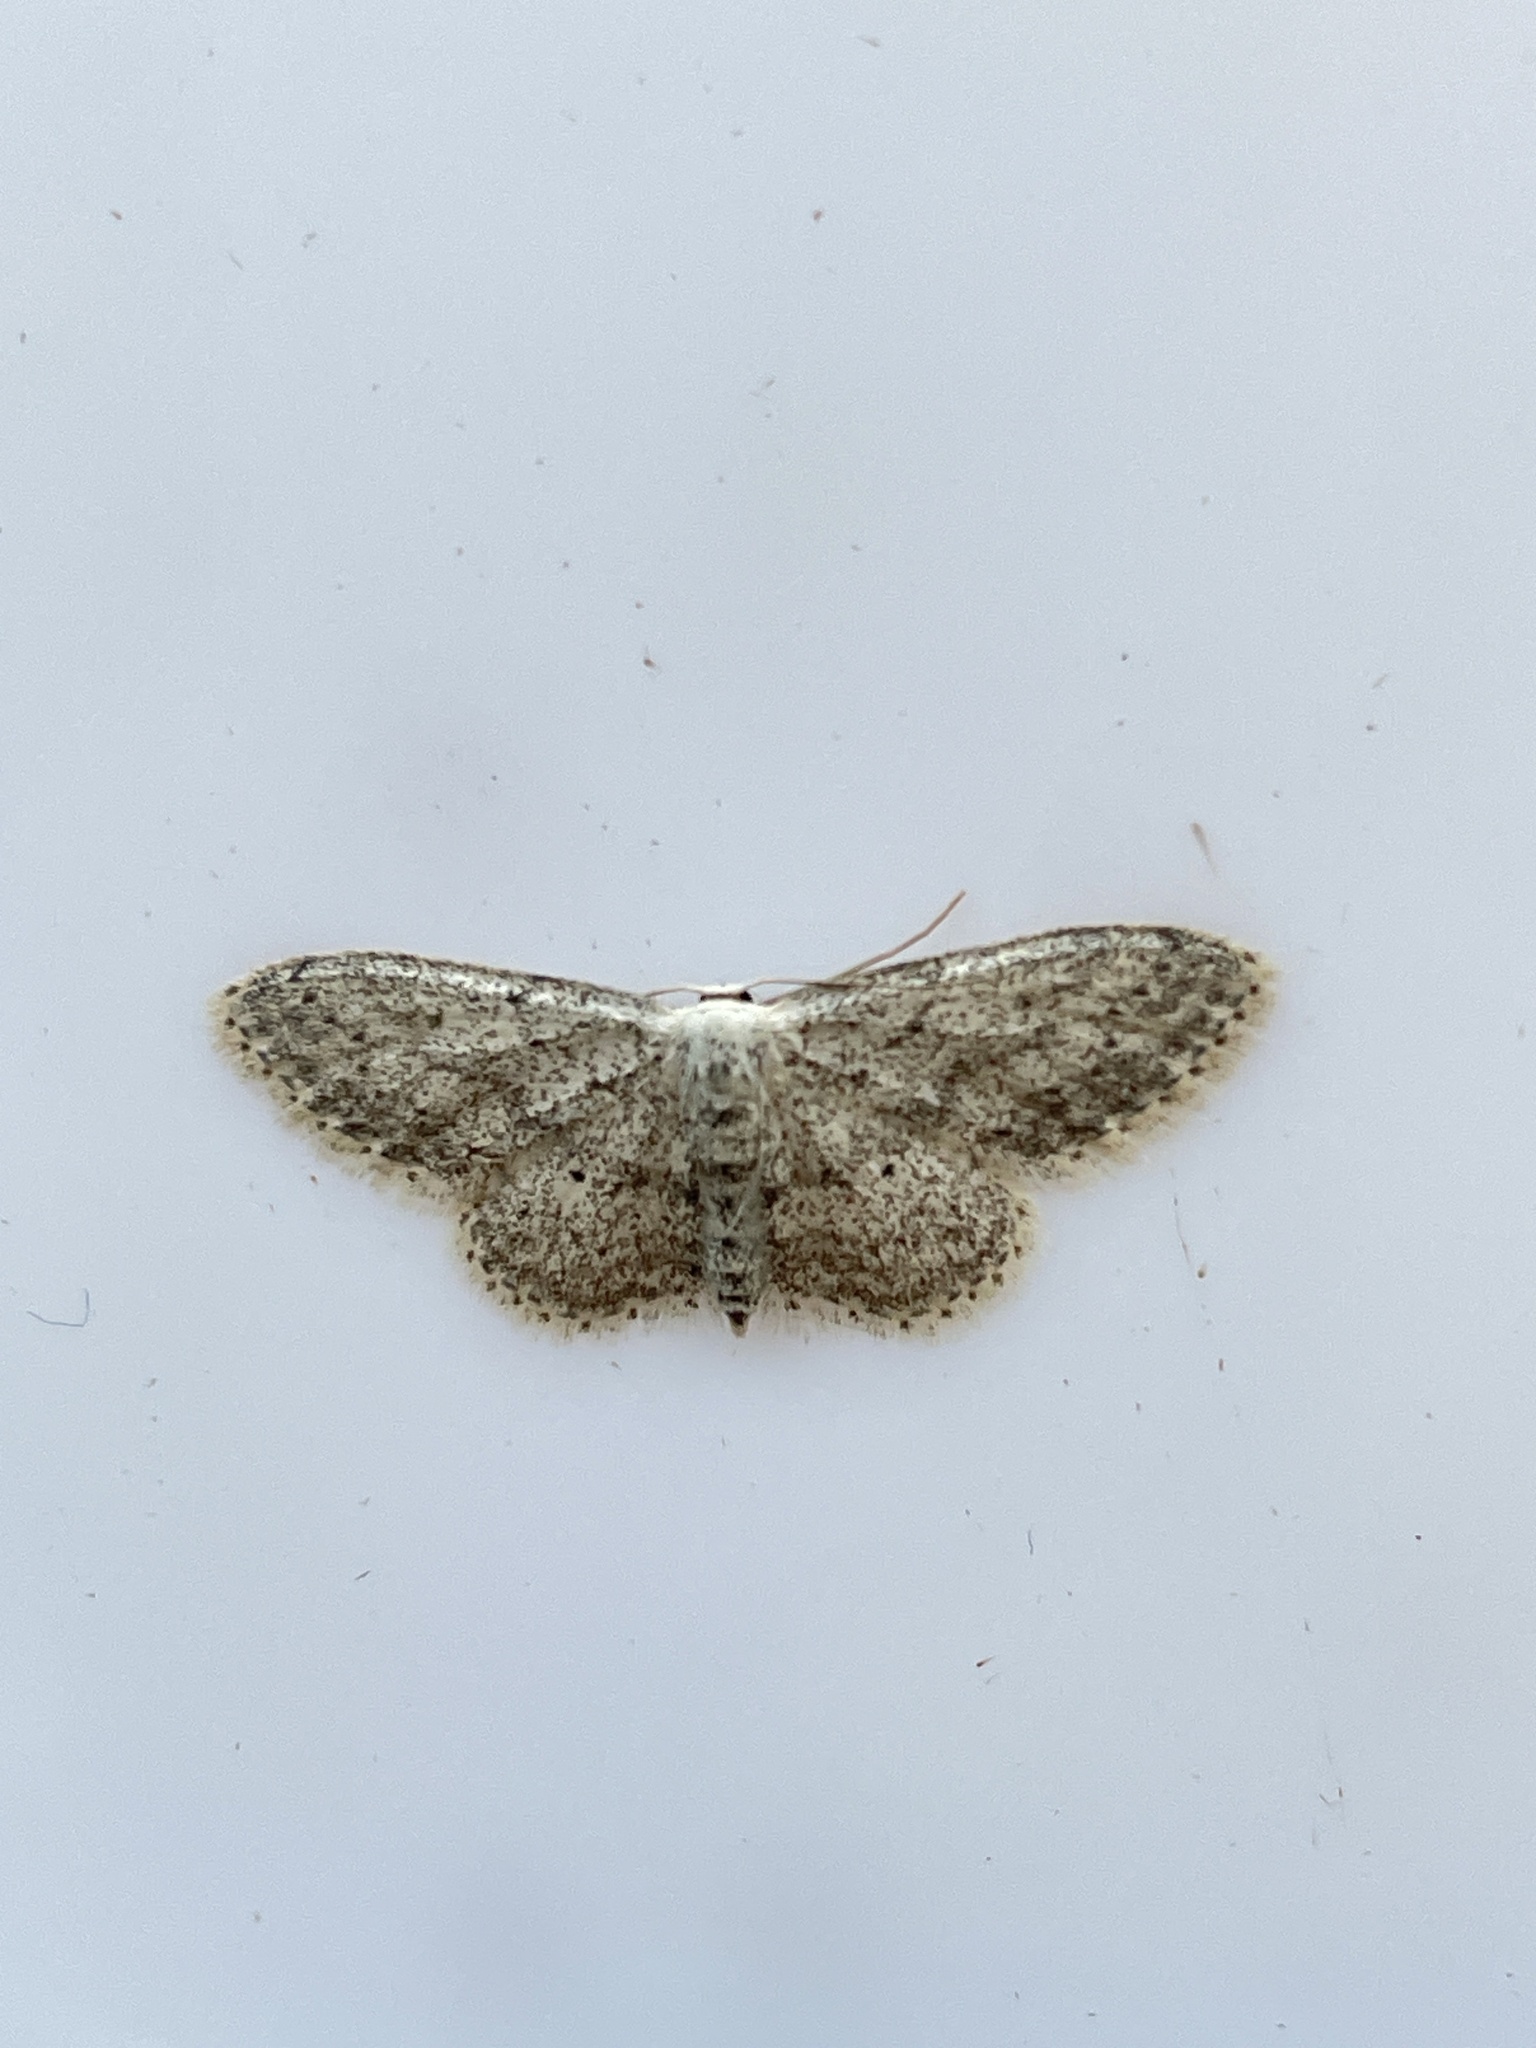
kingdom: Animalia
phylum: Arthropoda
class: Insecta
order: Lepidoptera
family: Geometridae
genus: Idaea
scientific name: Idaea seriata
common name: Small dusty wave
